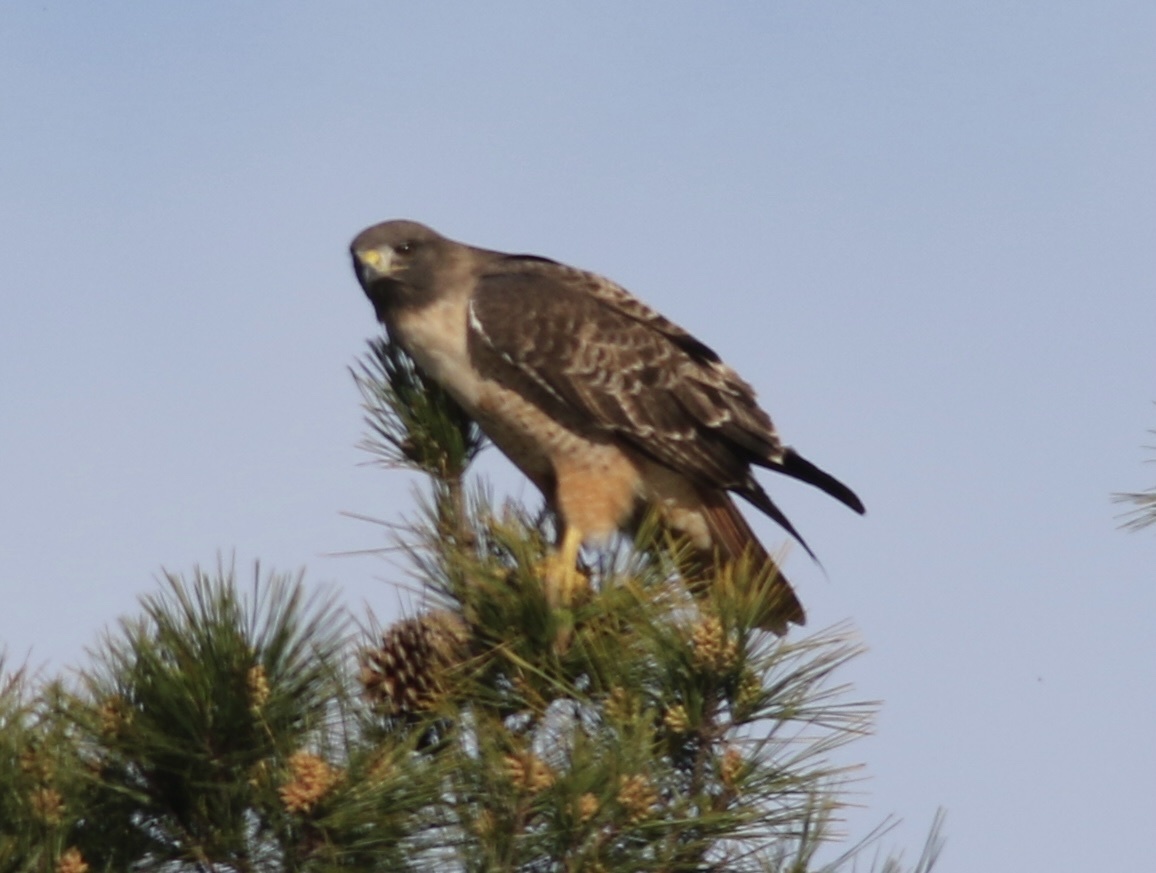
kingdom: Animalia
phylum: Chordata
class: Aves
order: Accipitriformes
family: Accipitridae
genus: Buteo
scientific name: Buteo jamaicensis
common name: Red-tailed hawk
